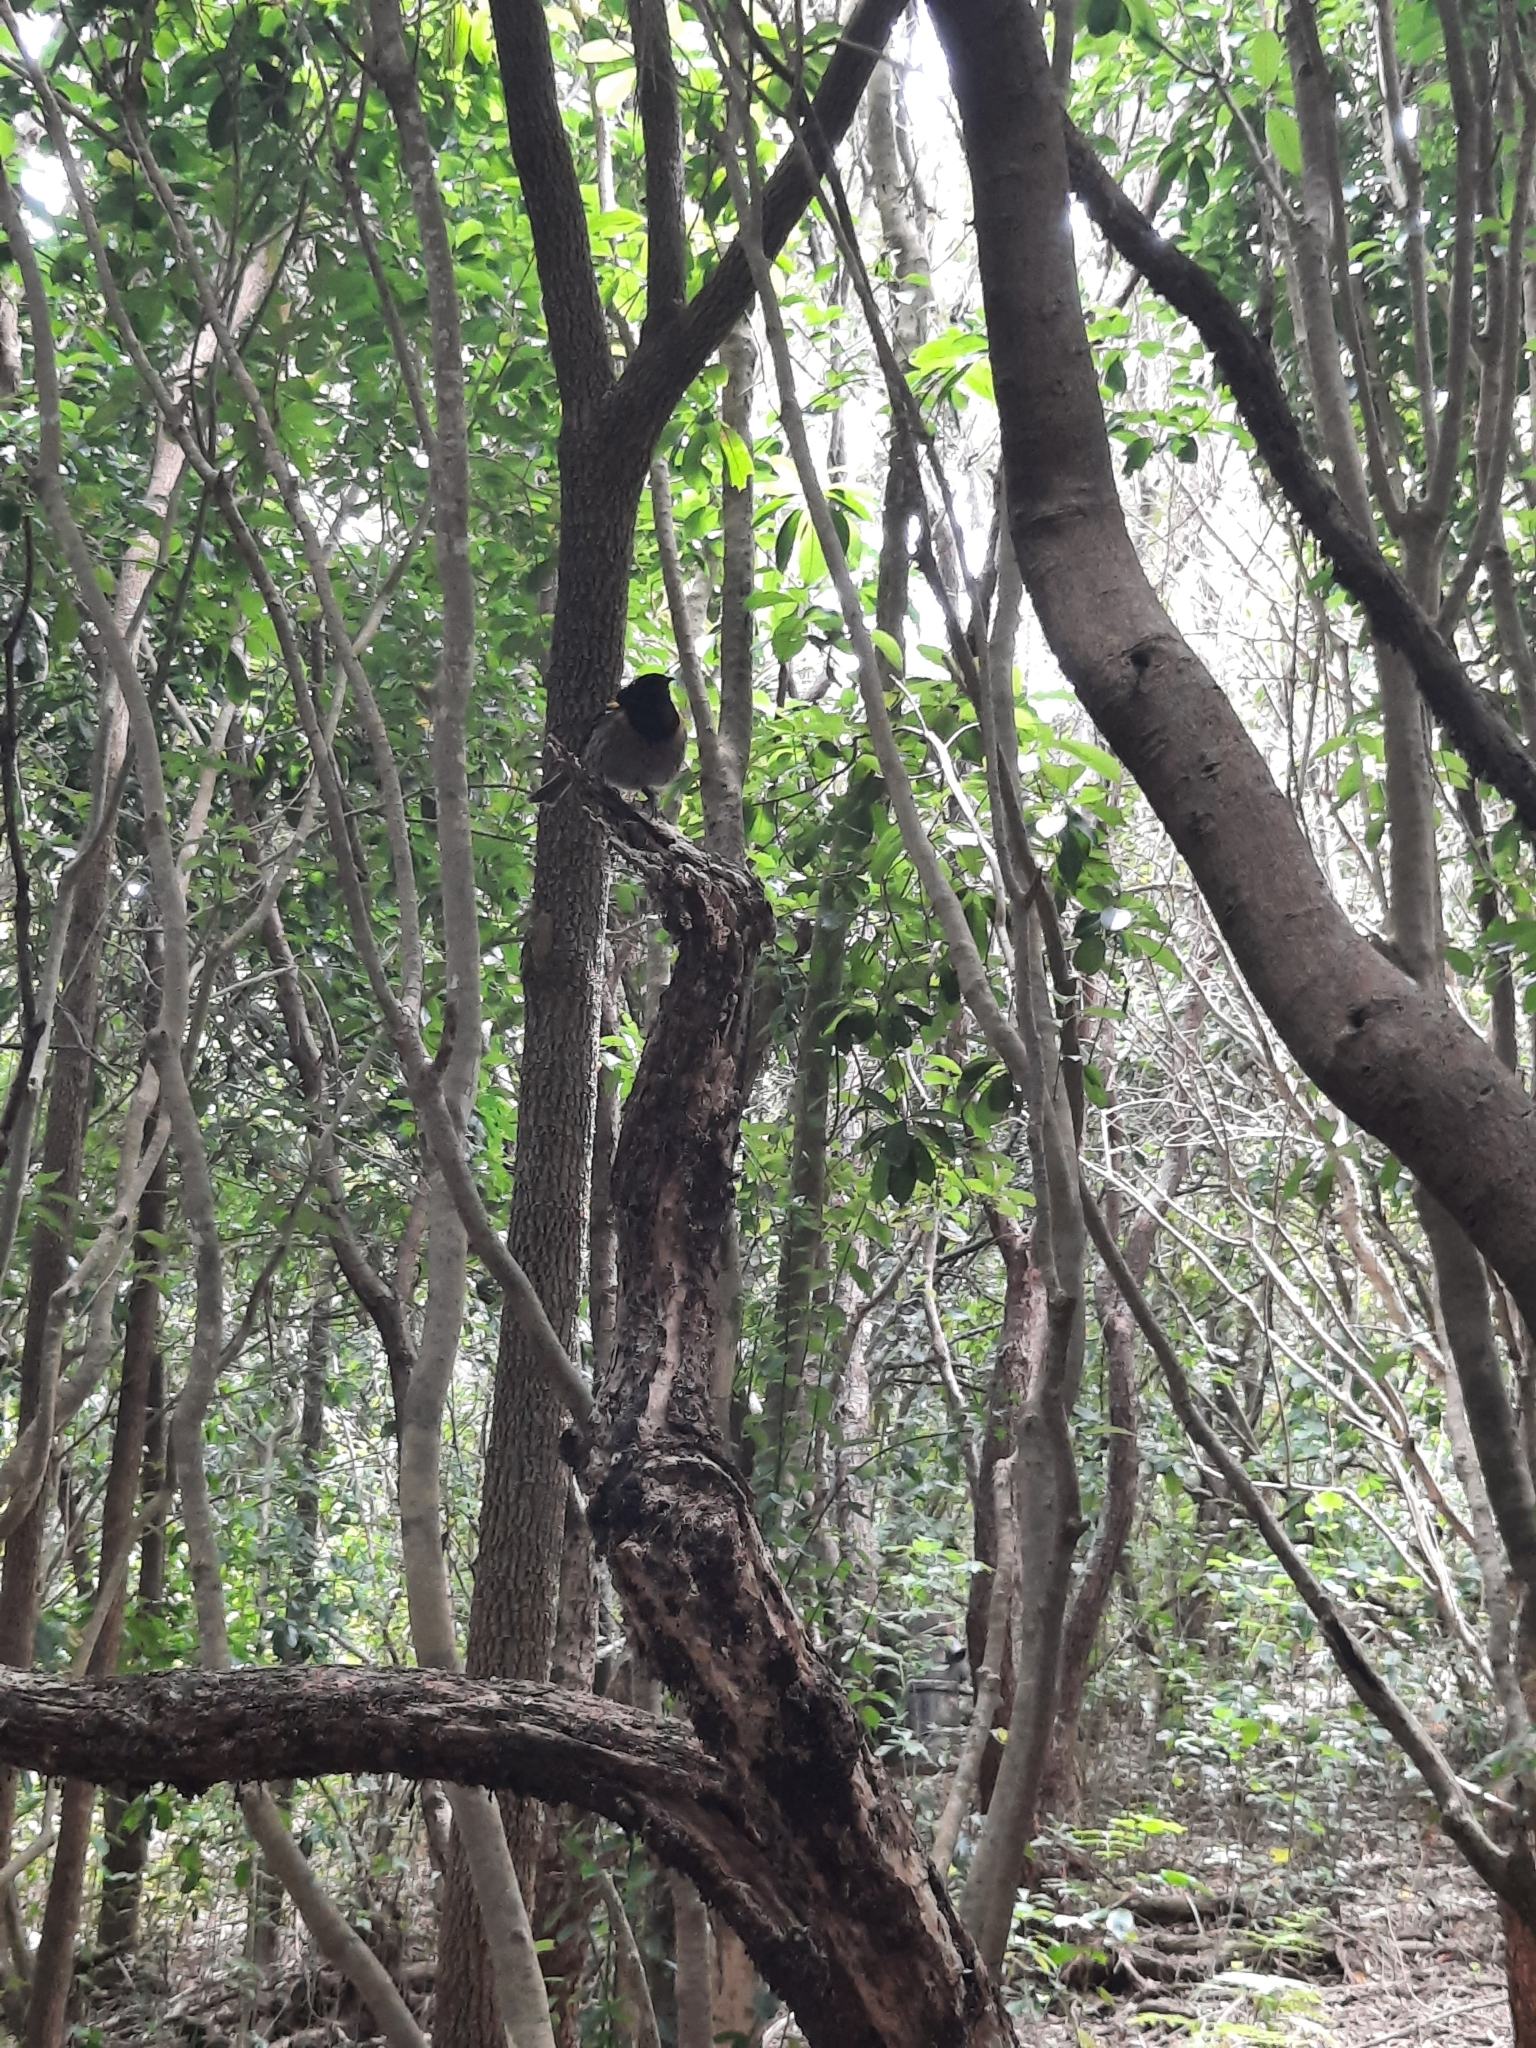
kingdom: Animalia
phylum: Chordata
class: Aves
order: Passeriformes
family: Notiomystidae
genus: Notiomystis
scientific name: Notiomystis cincta
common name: Stitchbird
